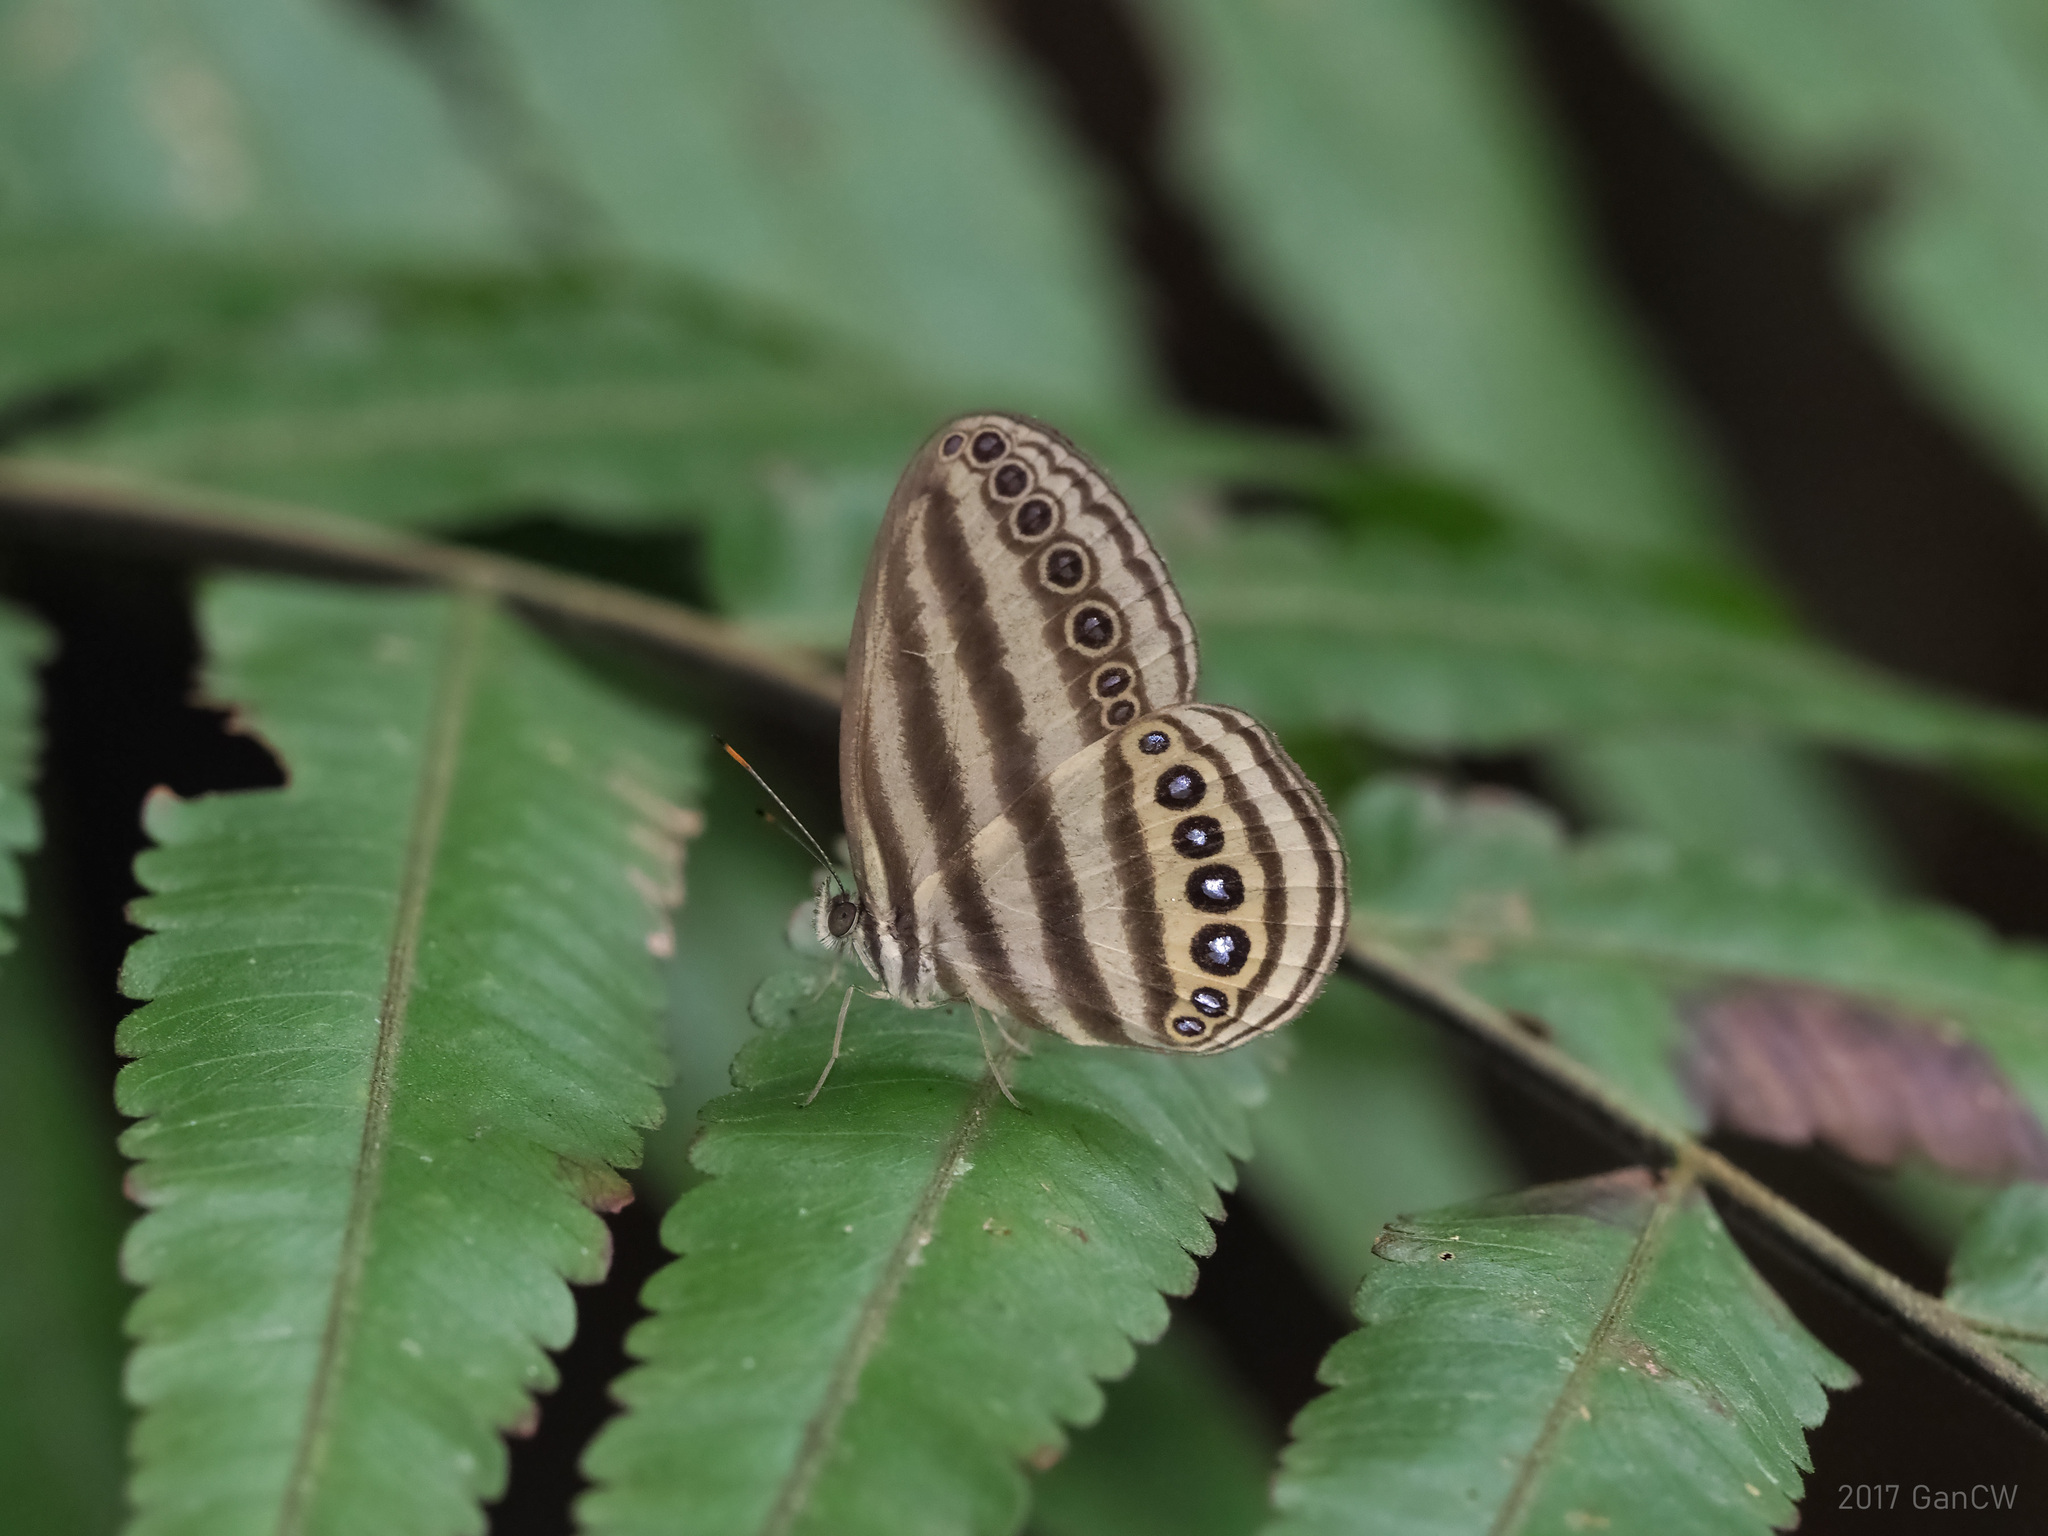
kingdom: Animalia
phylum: Arthropoda
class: Insecta
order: Lepidoptera
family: Nymphalidae
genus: Ragadia
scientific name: Ragadia makuta
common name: Striped ringlet
